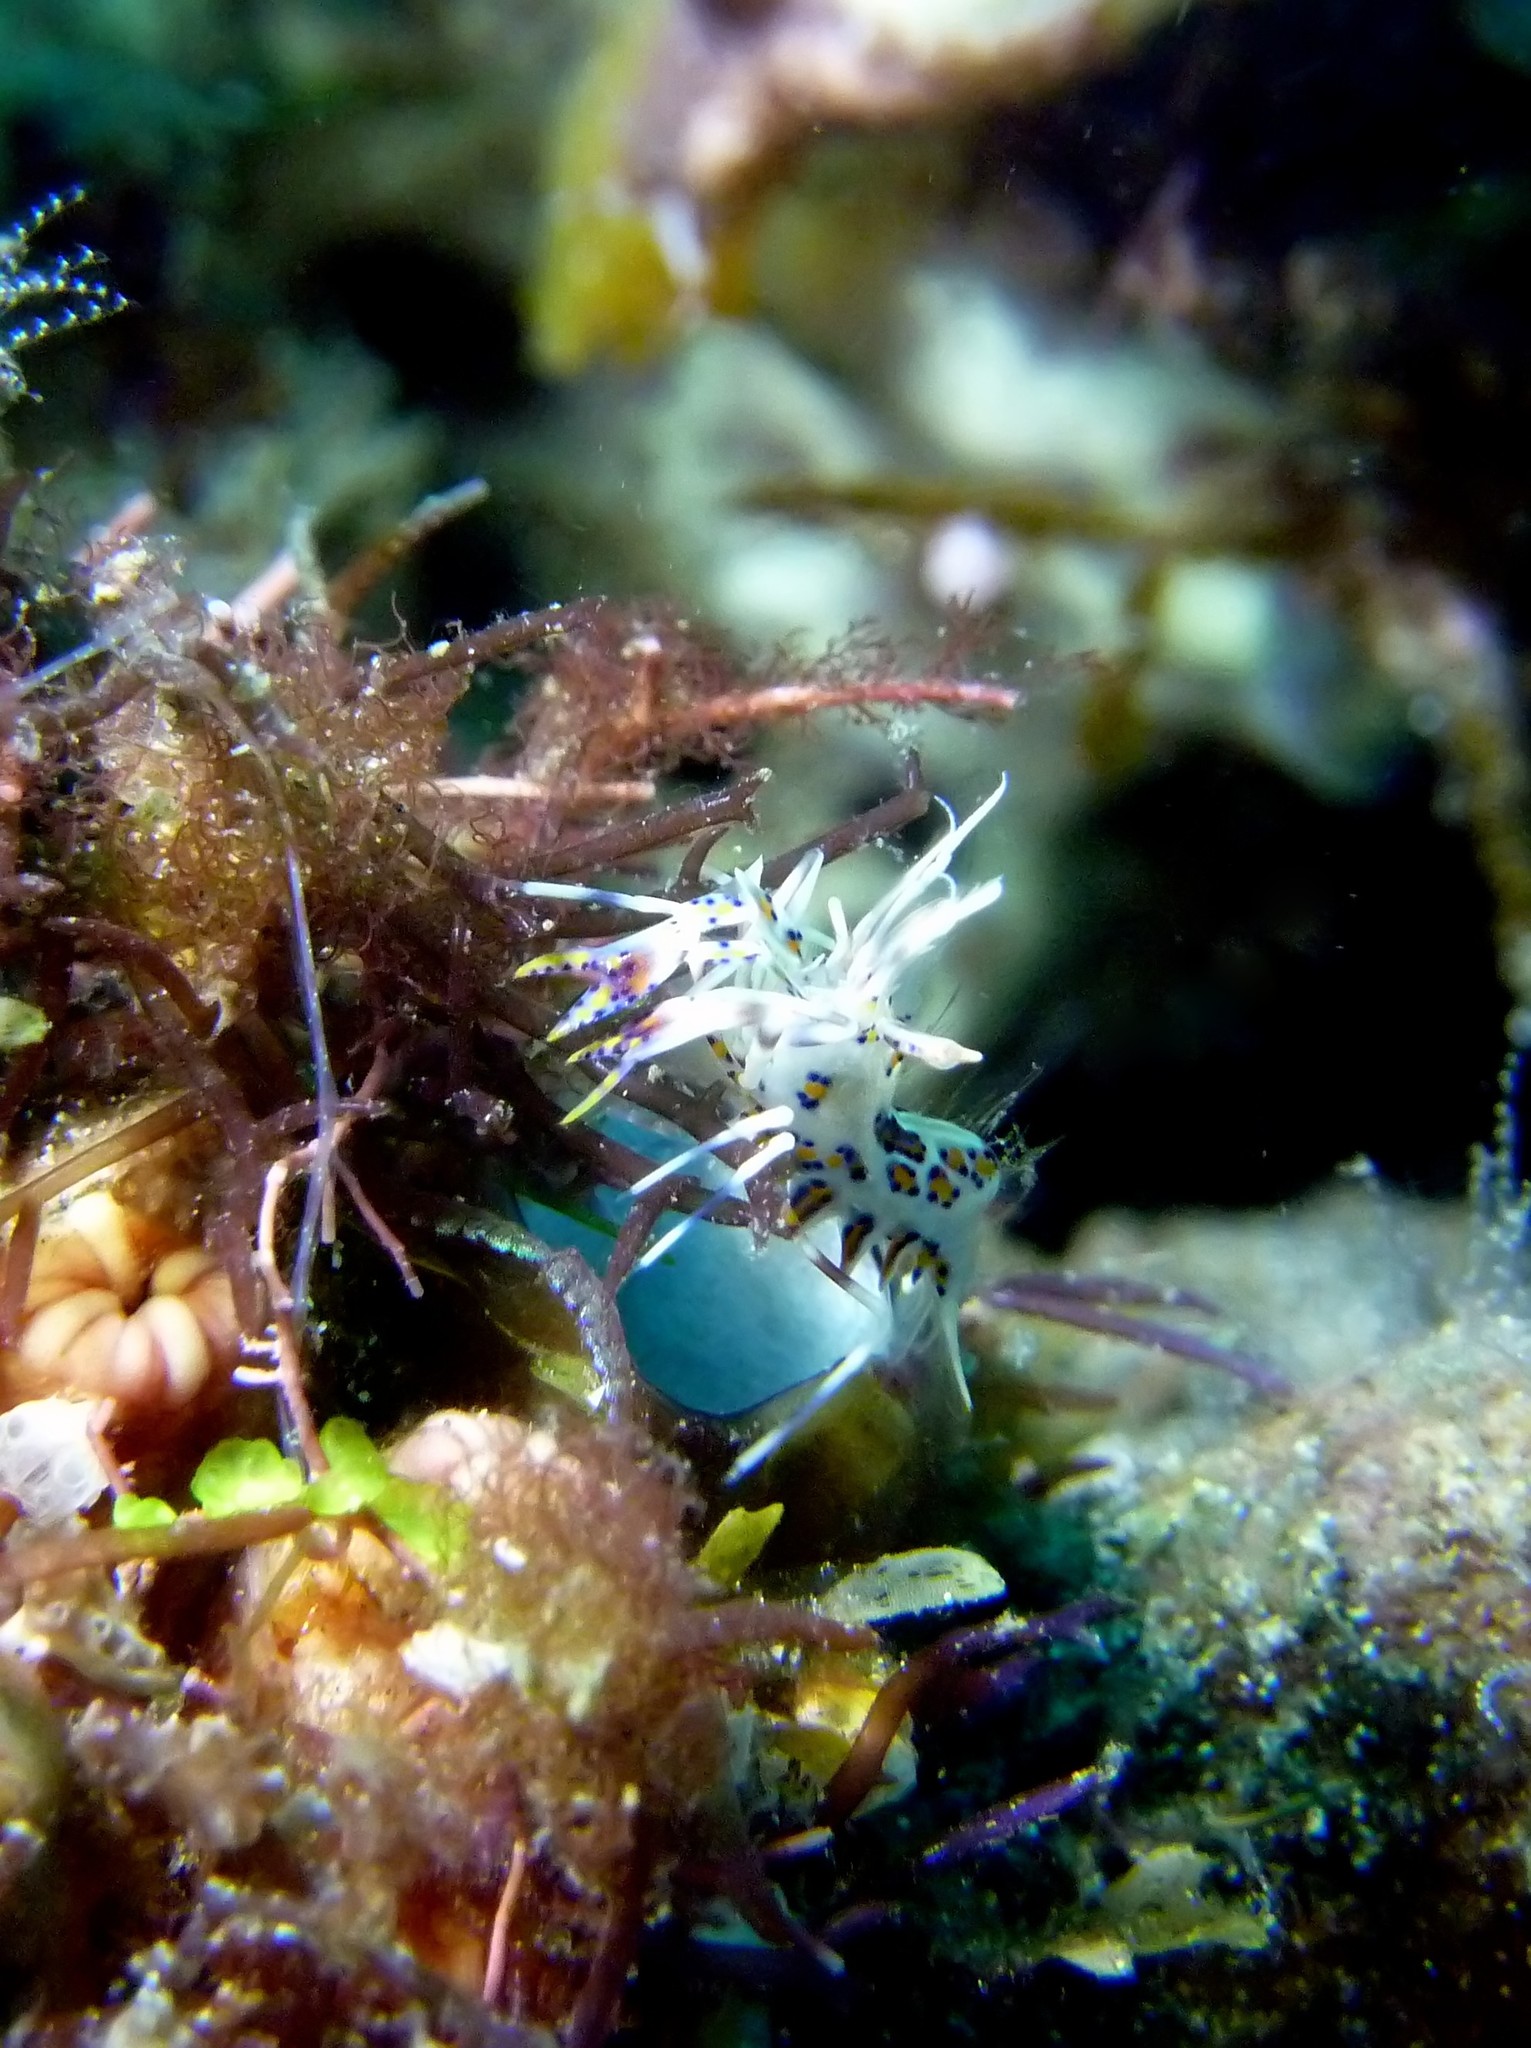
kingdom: Animalia
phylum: Arthropoda
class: Malacostraca
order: Decapoda
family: Palaemonidae
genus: Phyllognathia
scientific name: Phyllognathia ceratophthalma
